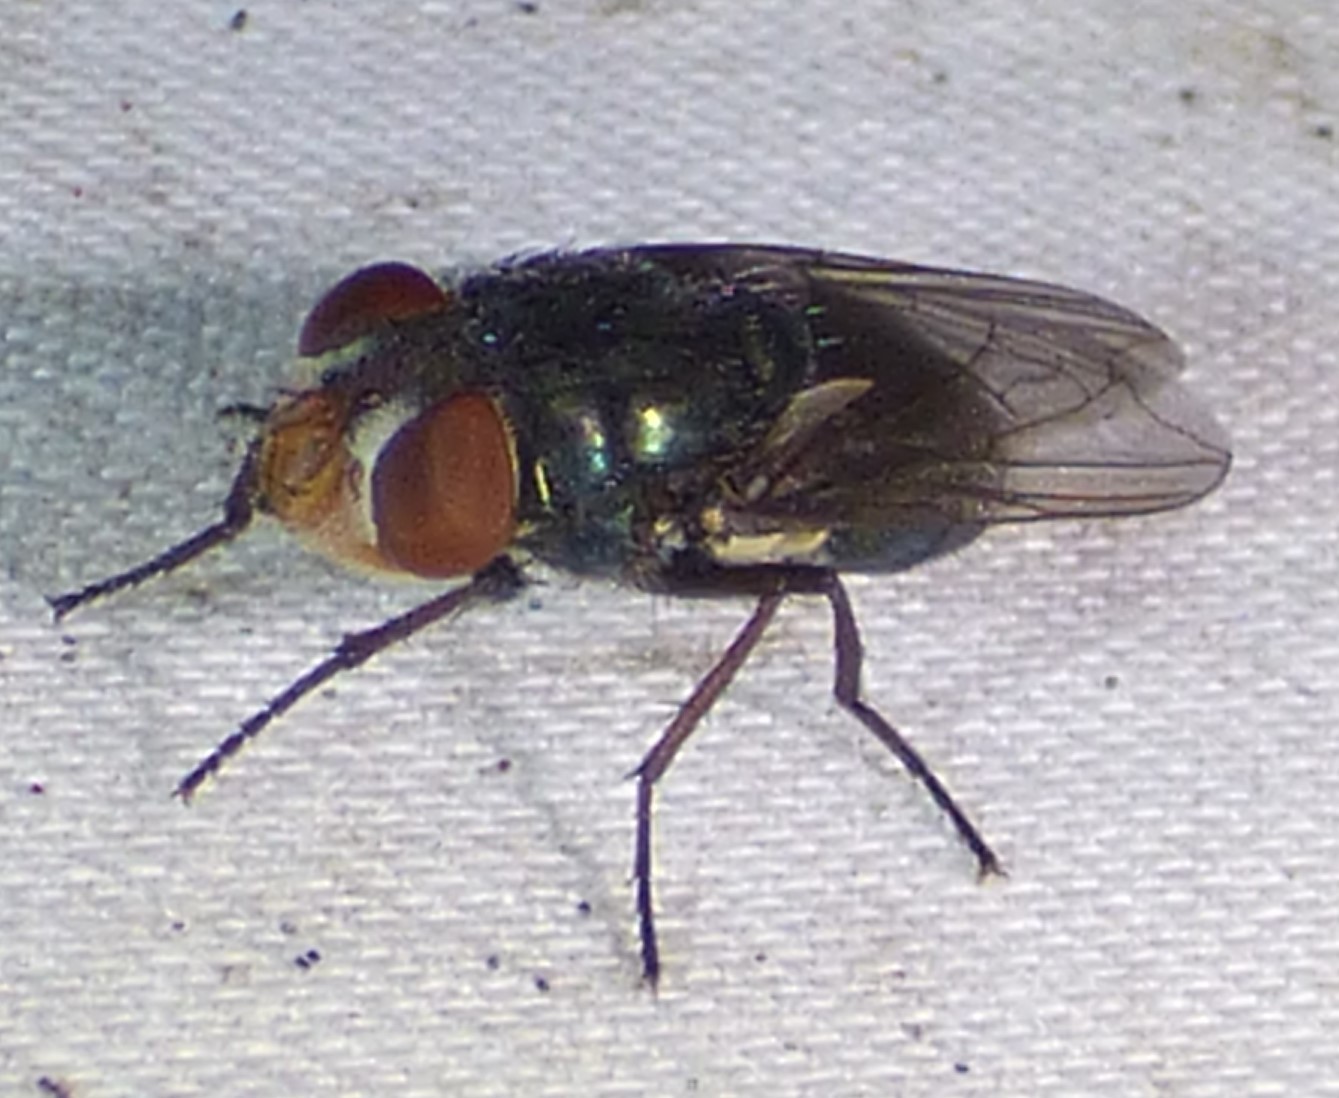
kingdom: Animalia
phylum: Arthropoda
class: Insecta
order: Diptera
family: Calliphoridae
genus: Cochliomyia
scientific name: Cochliomyia macellaria
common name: Secondary screwworm
